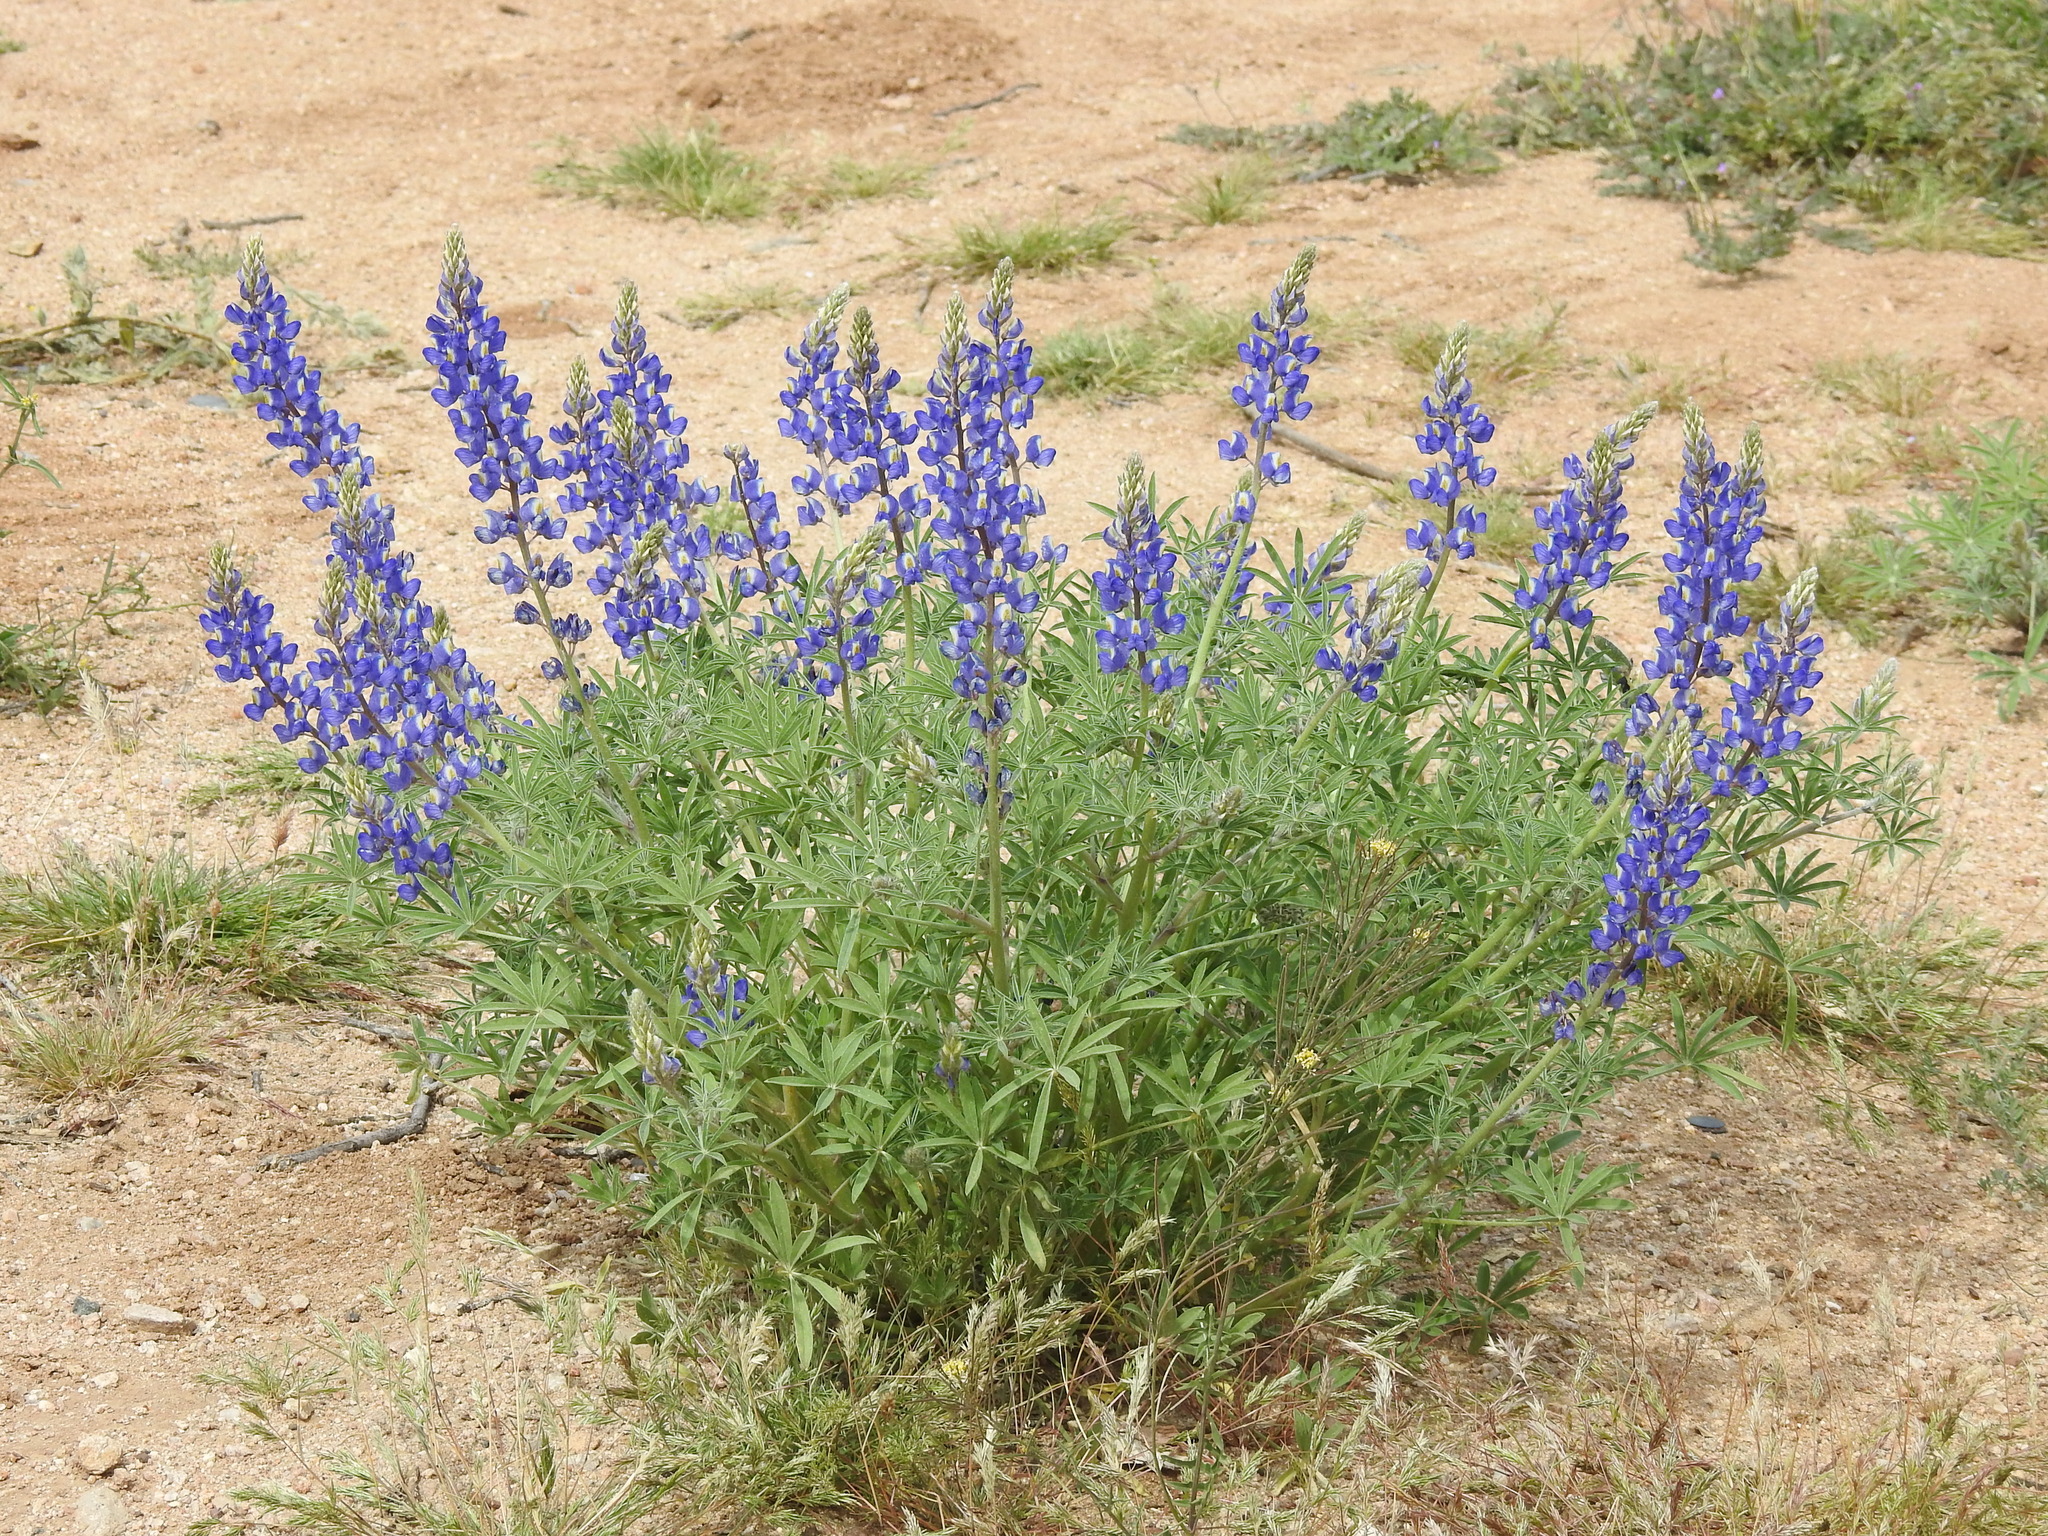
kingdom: Plantae
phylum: Tracheophyta
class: Magnoliopsida
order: Fabales
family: Fabaceae
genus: Lupinus
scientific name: Lupinus sparsiflorus
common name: Coulter's lupine
